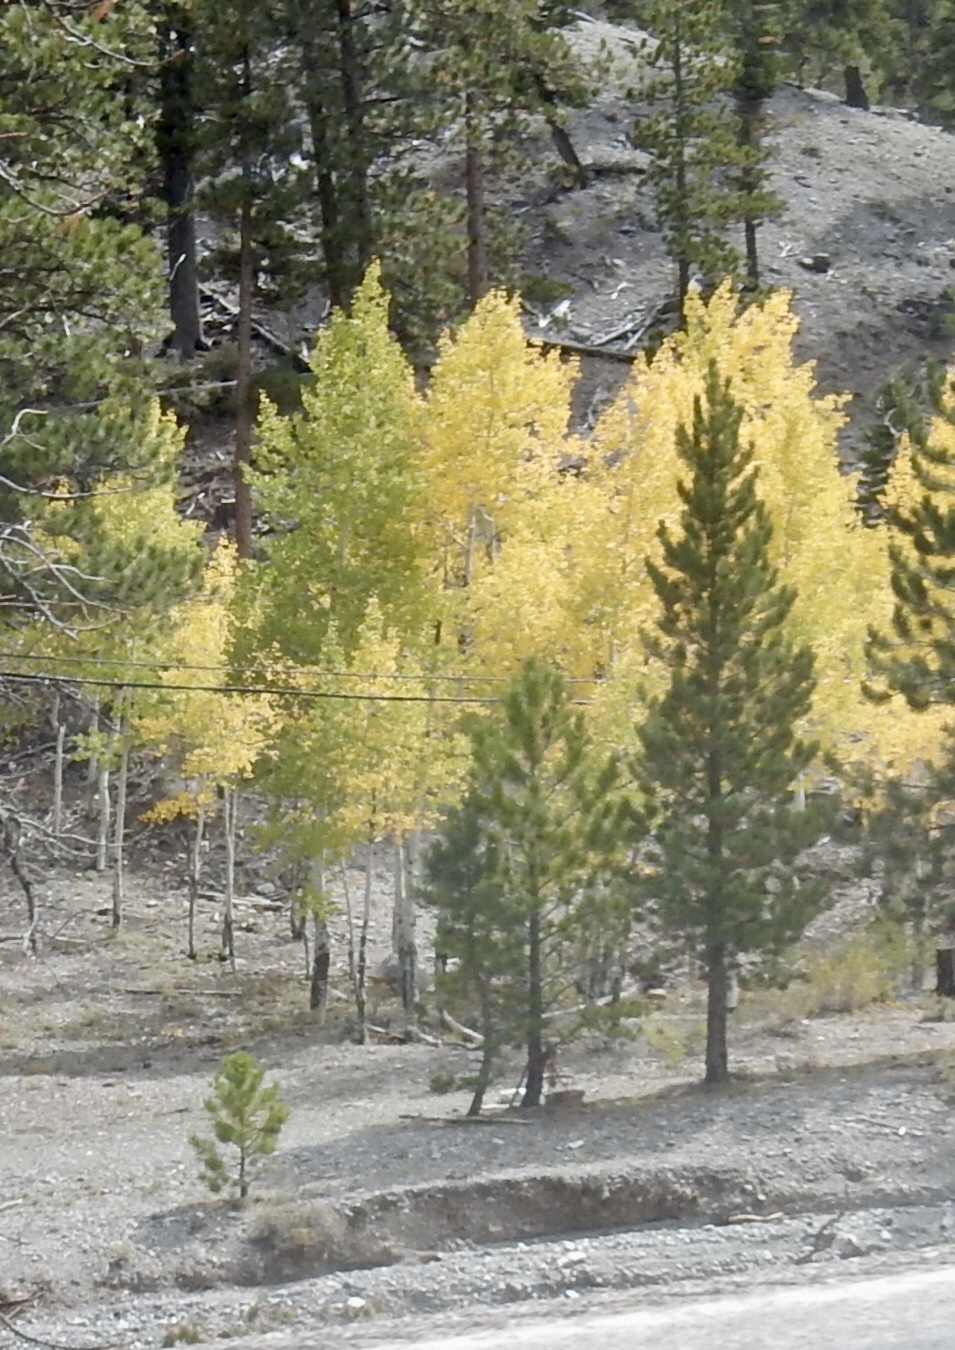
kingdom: Plantae
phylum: Tracheophyta
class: Magnoliopsida
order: Malpighiales
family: Salicaceae
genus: Populus
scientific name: Populus tremuloides
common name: Quaking aspen
